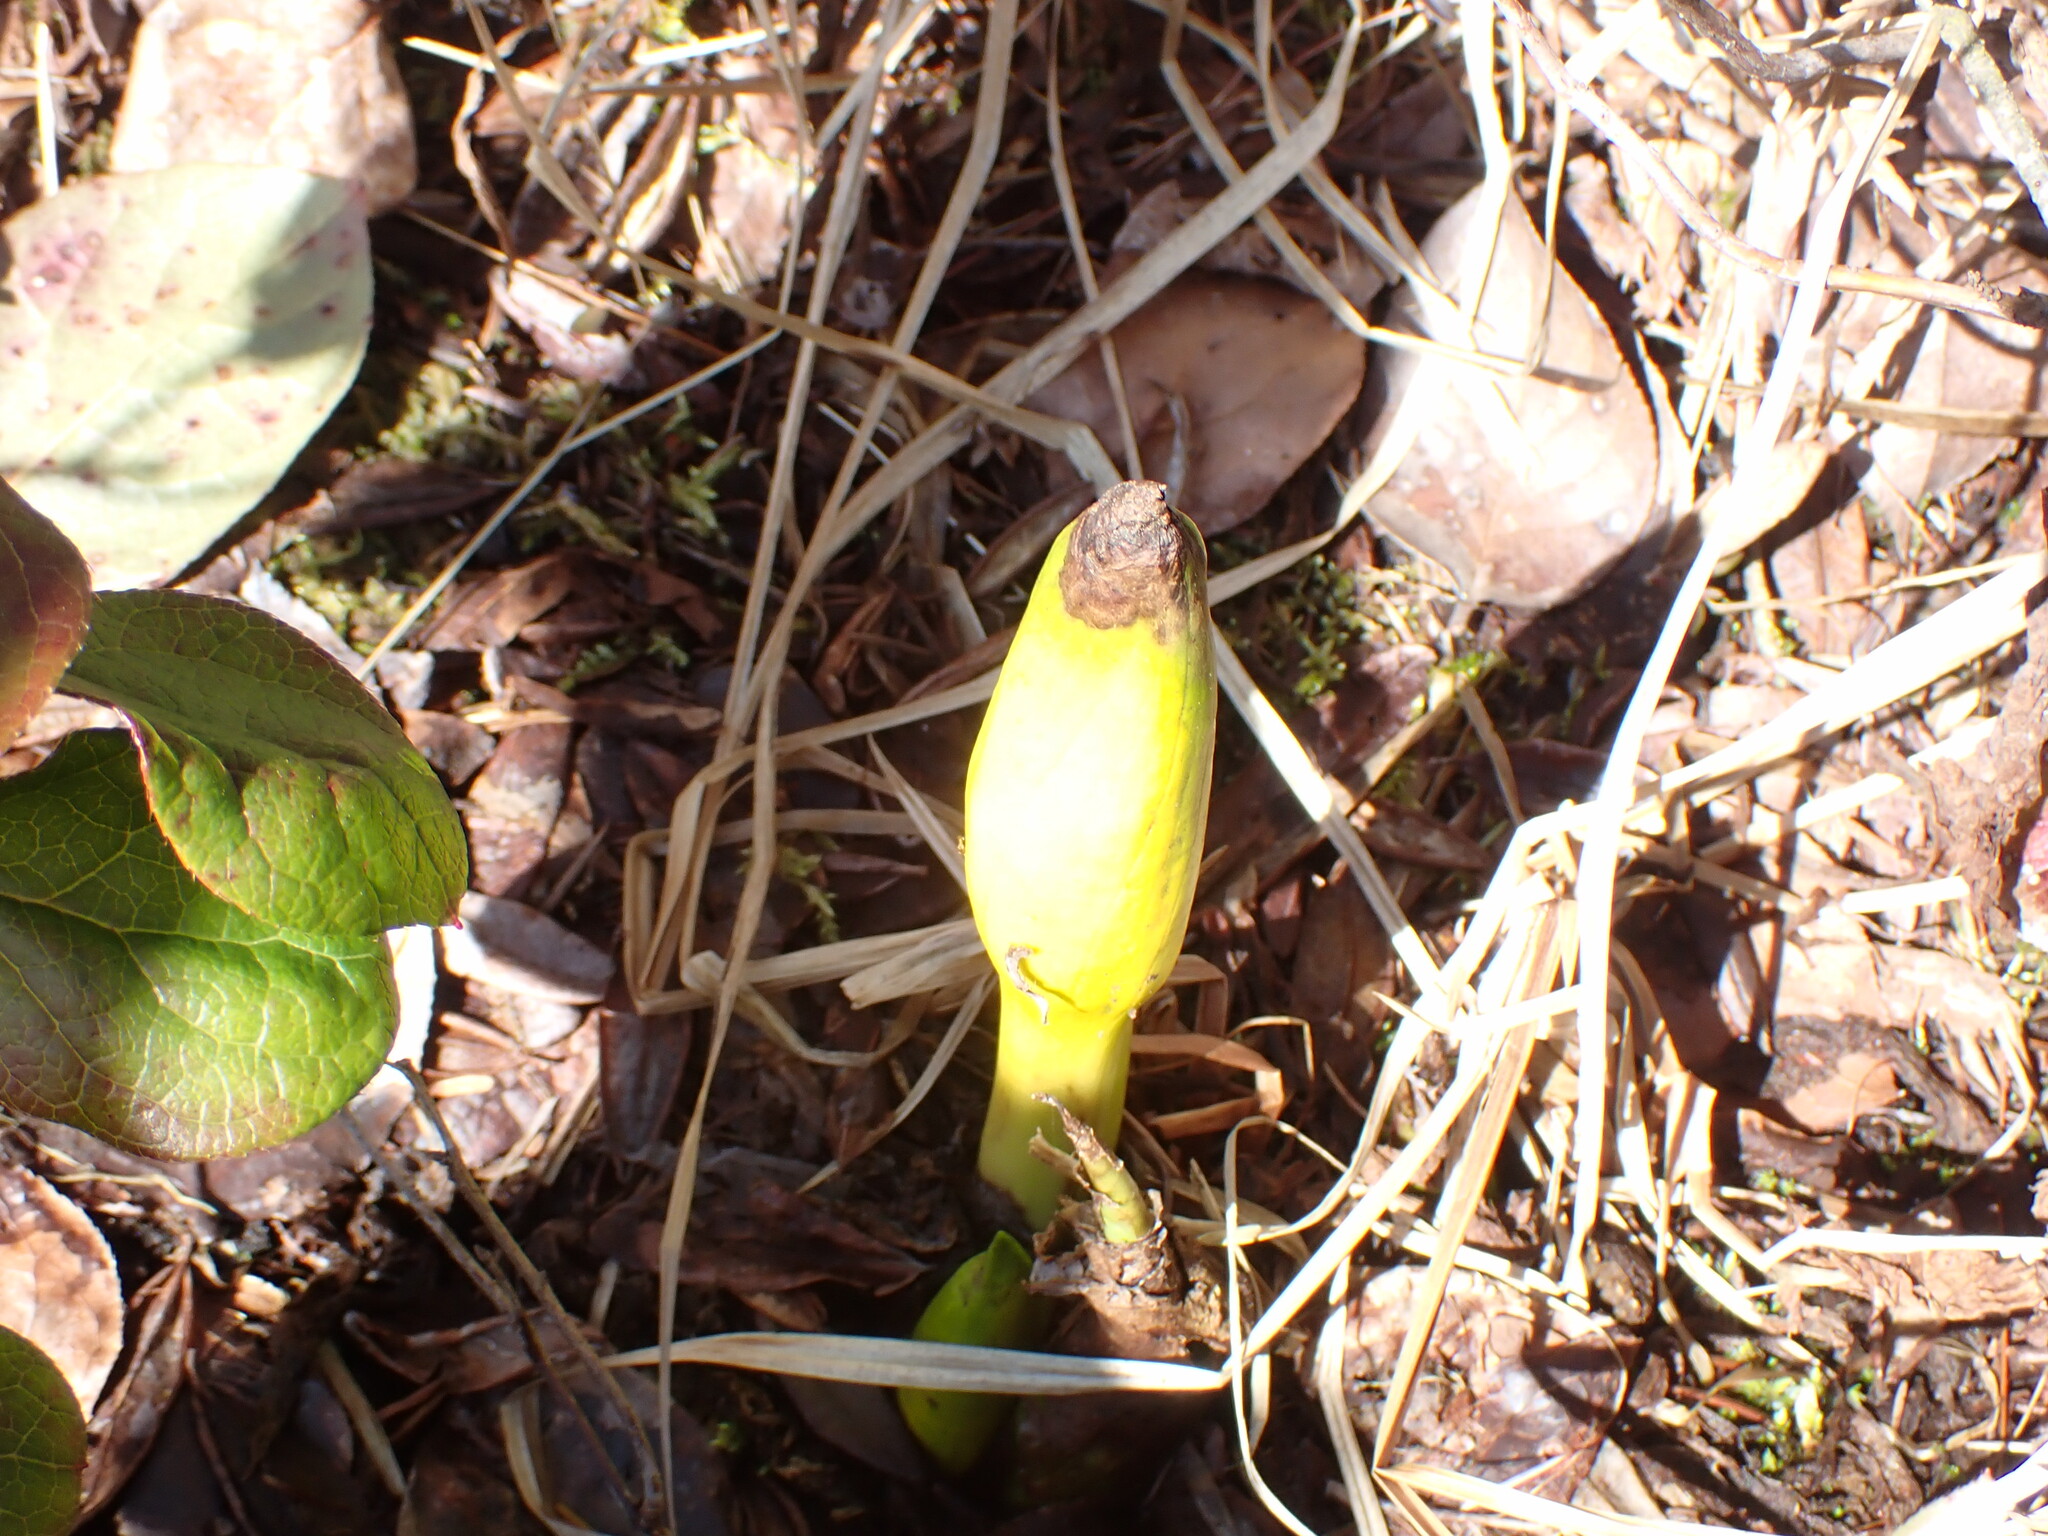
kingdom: Plantae
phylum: Tracheophyta
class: Liliopsida
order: Alismatales
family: Araceae
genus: Lysichiton
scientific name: Lysichiton americanus
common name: American skunk cabbage
